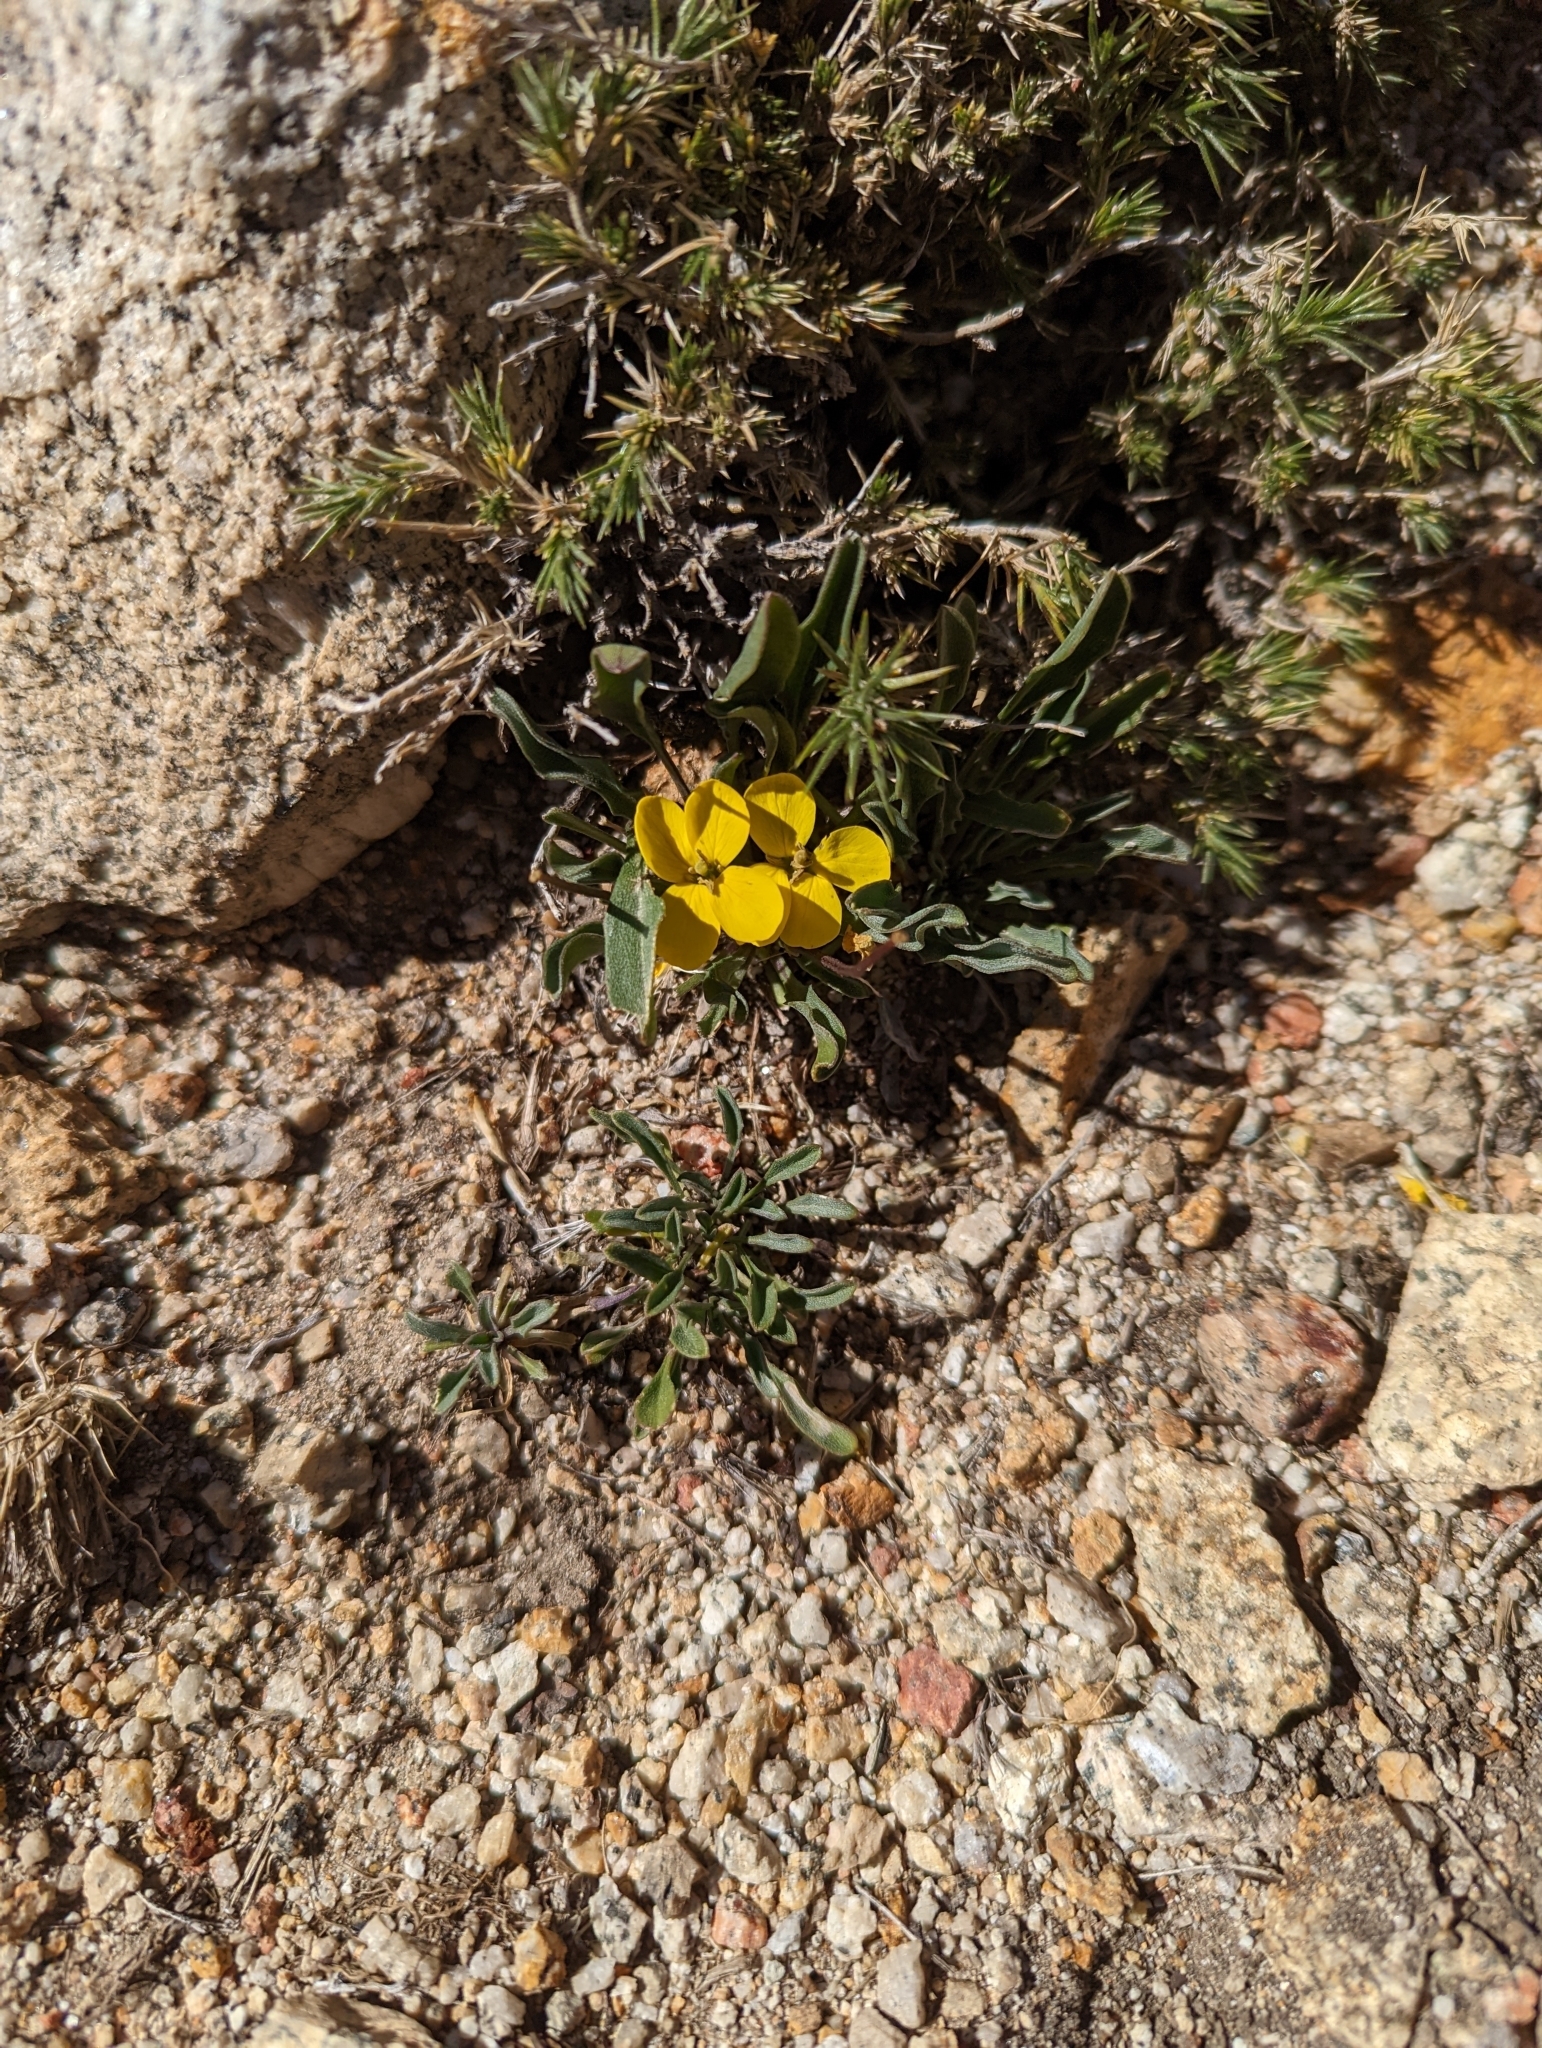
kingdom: Plantae
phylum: Tracheophyta
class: Magnoliopsida
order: Brassicales
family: Brassicaceae
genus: Erysimum
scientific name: Erysimum perenne
